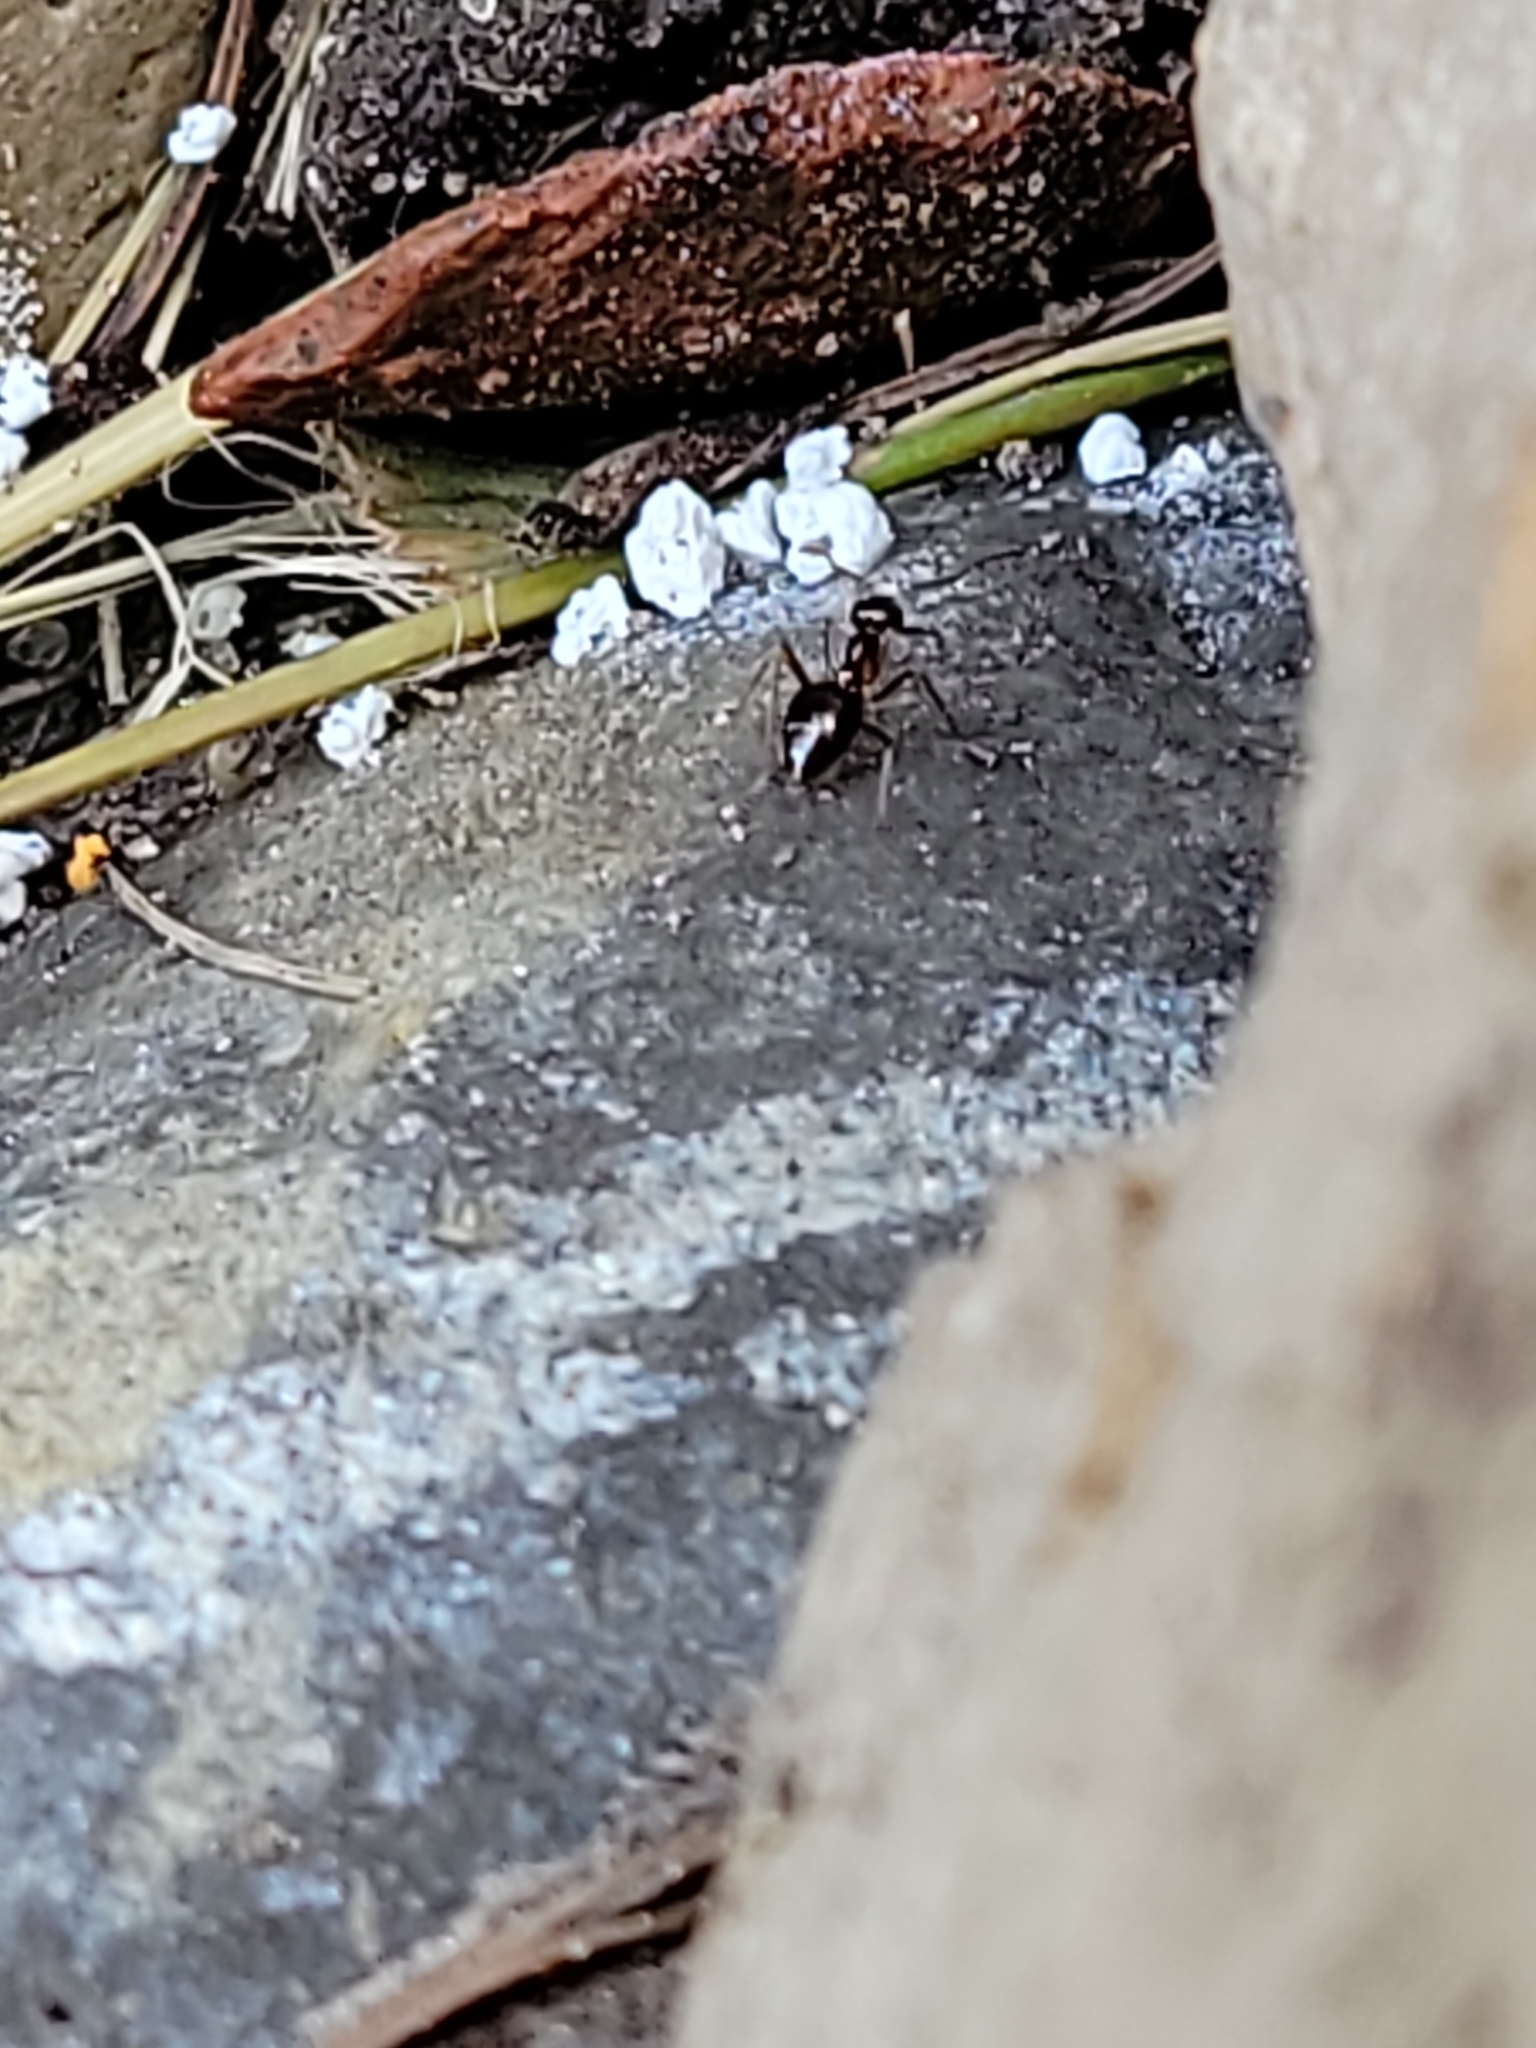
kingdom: Animalia
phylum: Arthropoda
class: Insecta
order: Hymenoptera
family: Formicidae
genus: Prenolepis
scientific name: Prenolepis imparis
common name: Small honey ant
